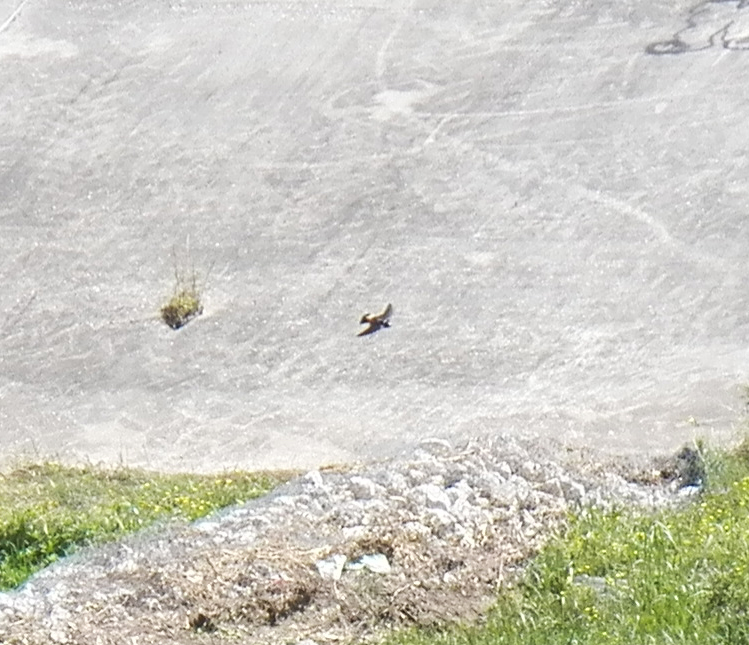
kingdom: Animalia
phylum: Chordata
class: Aves
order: Passeriformes
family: Hirundinidae
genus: Petrochelidon
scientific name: Petrochelidon pyrrhonota
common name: American cliff swallow
